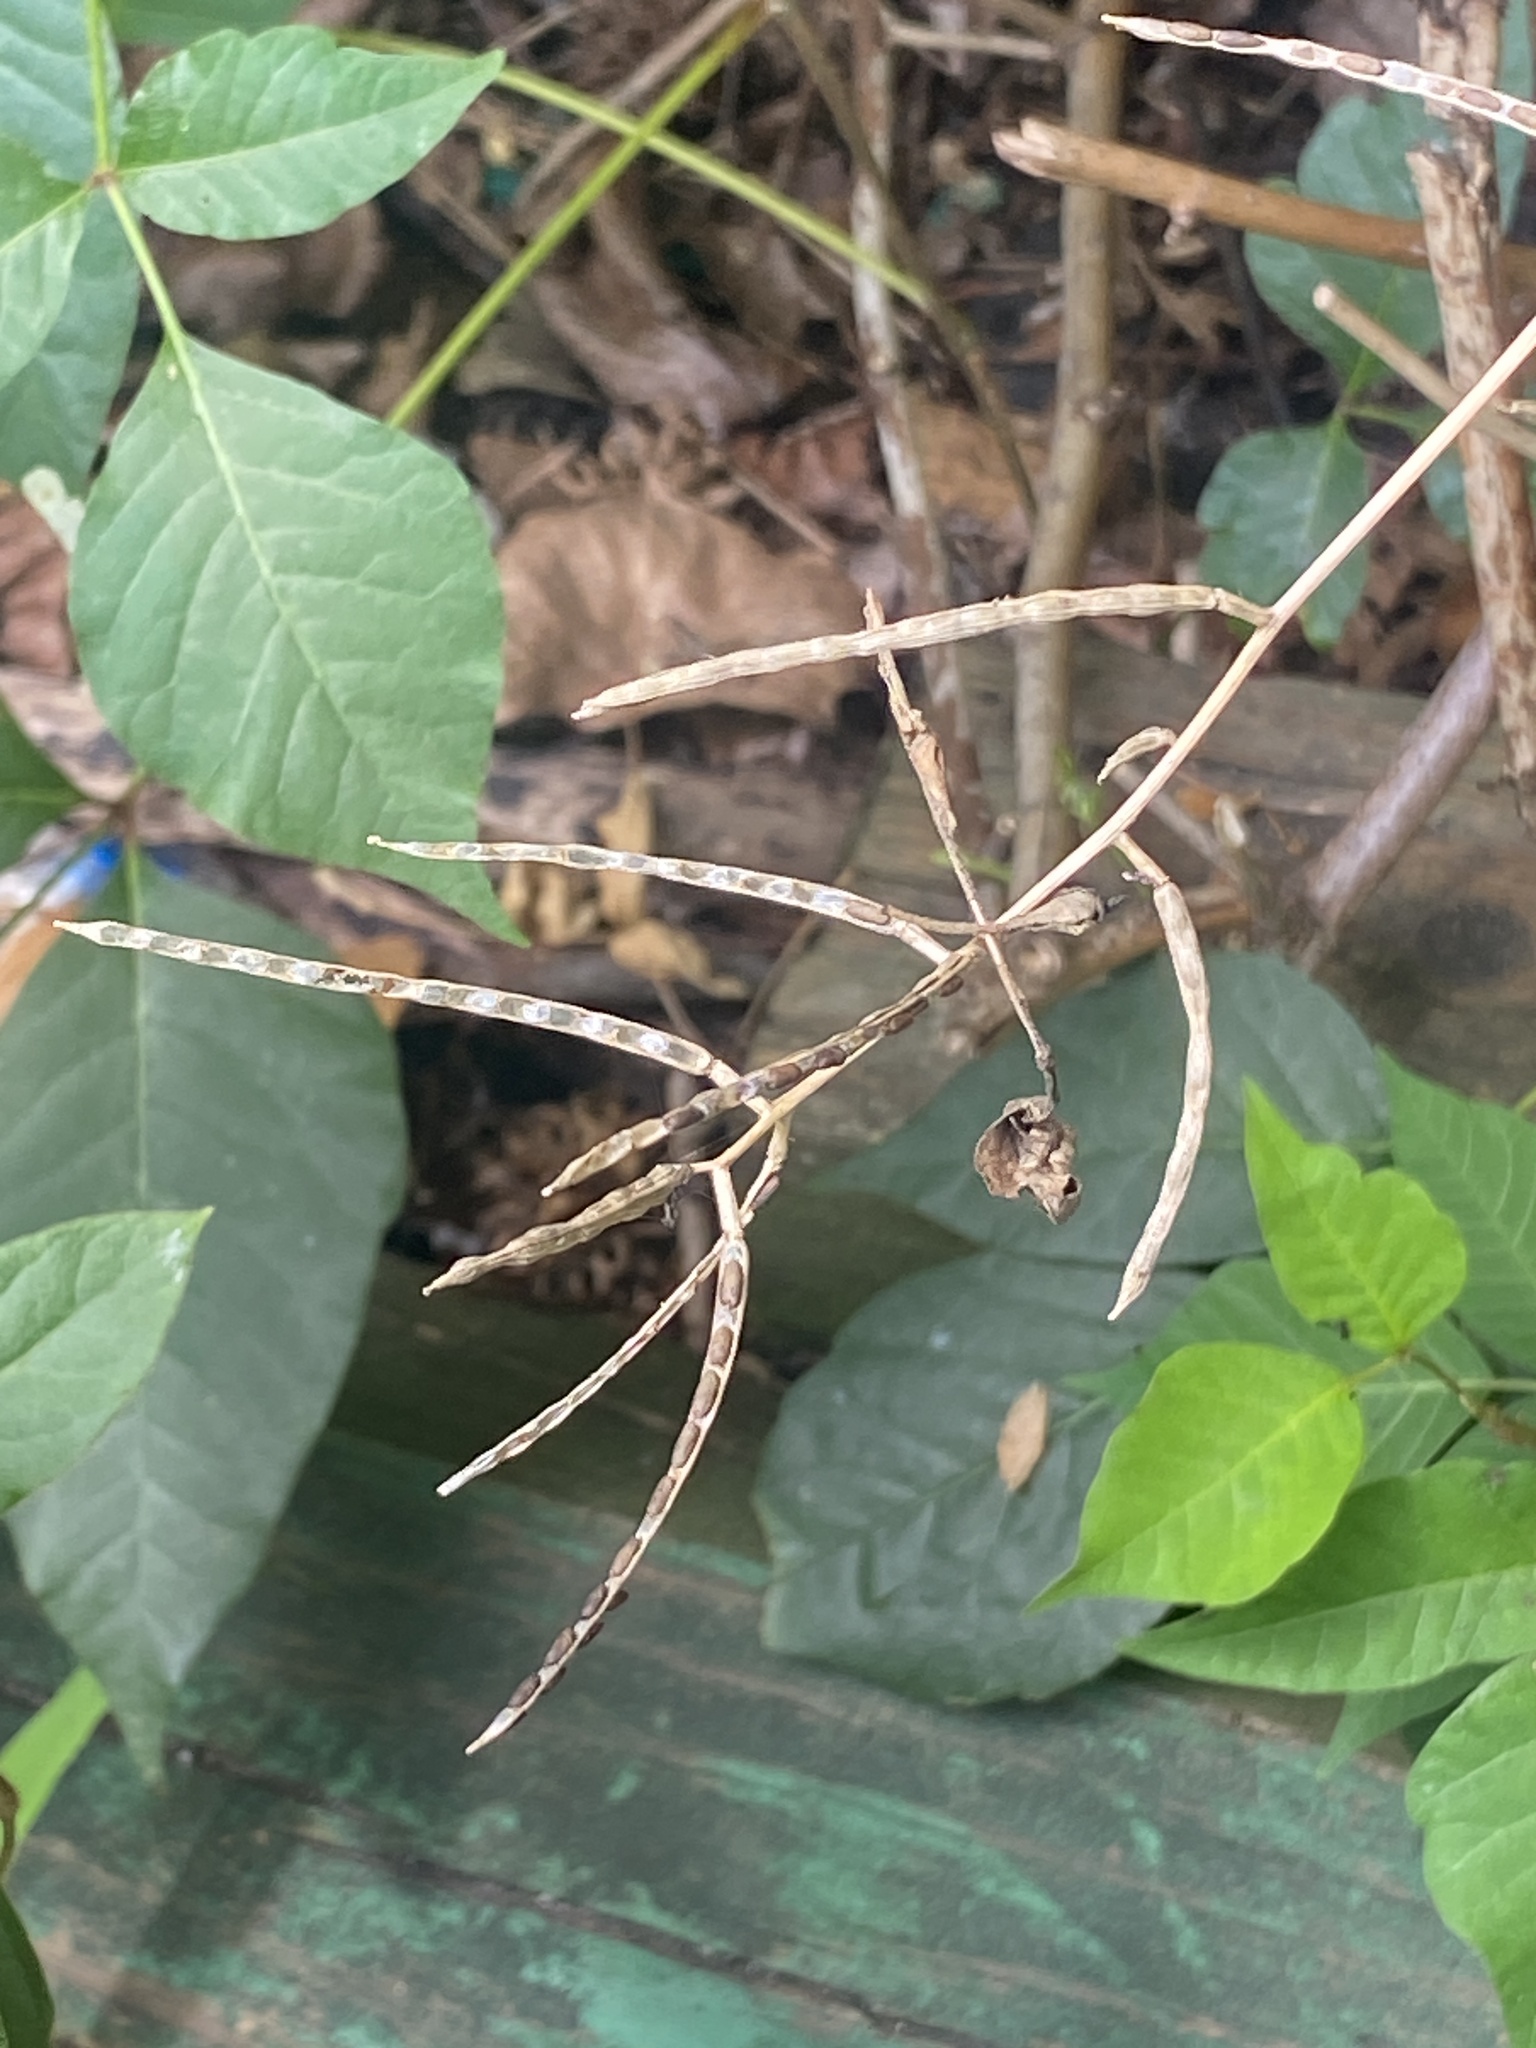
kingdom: Plantae
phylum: Tracheophyta
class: Magnoliopsida
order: Brassicales
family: Brassicaceae
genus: Alliaria
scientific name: Alliaria petiolata
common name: Garlic mustard
